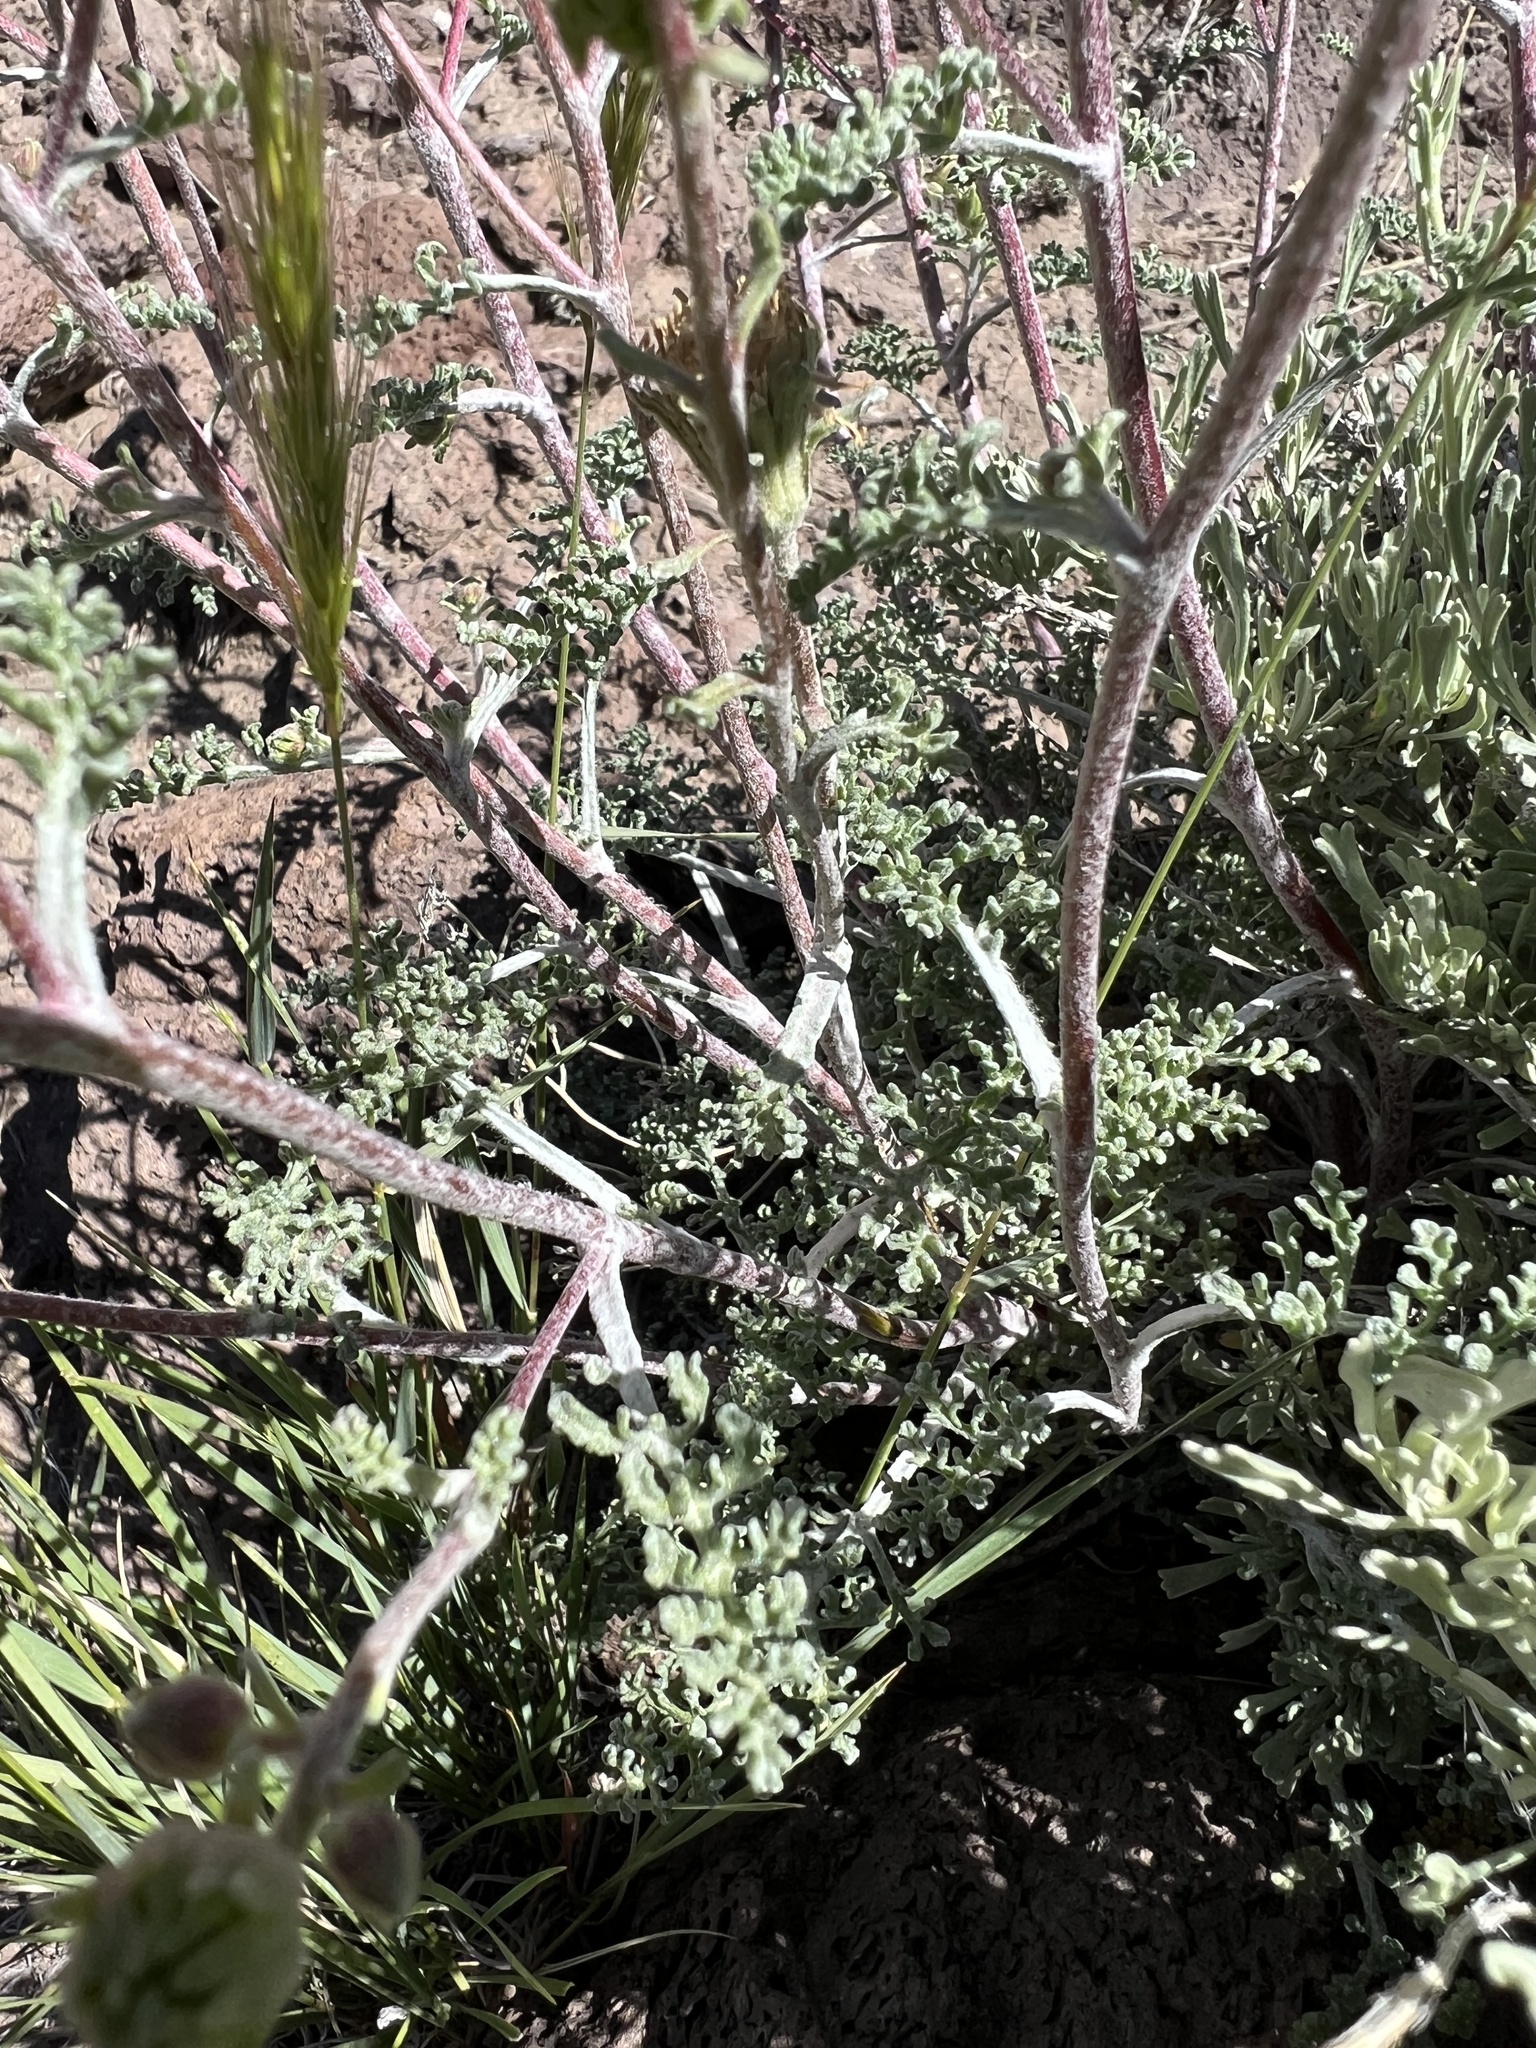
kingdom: Plantae
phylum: Tracheophyta
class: Magnoliopsida
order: Asterales
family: Asteraceae
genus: Chaenactis
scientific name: Chaenactis douglasii
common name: Hoary pincushion
